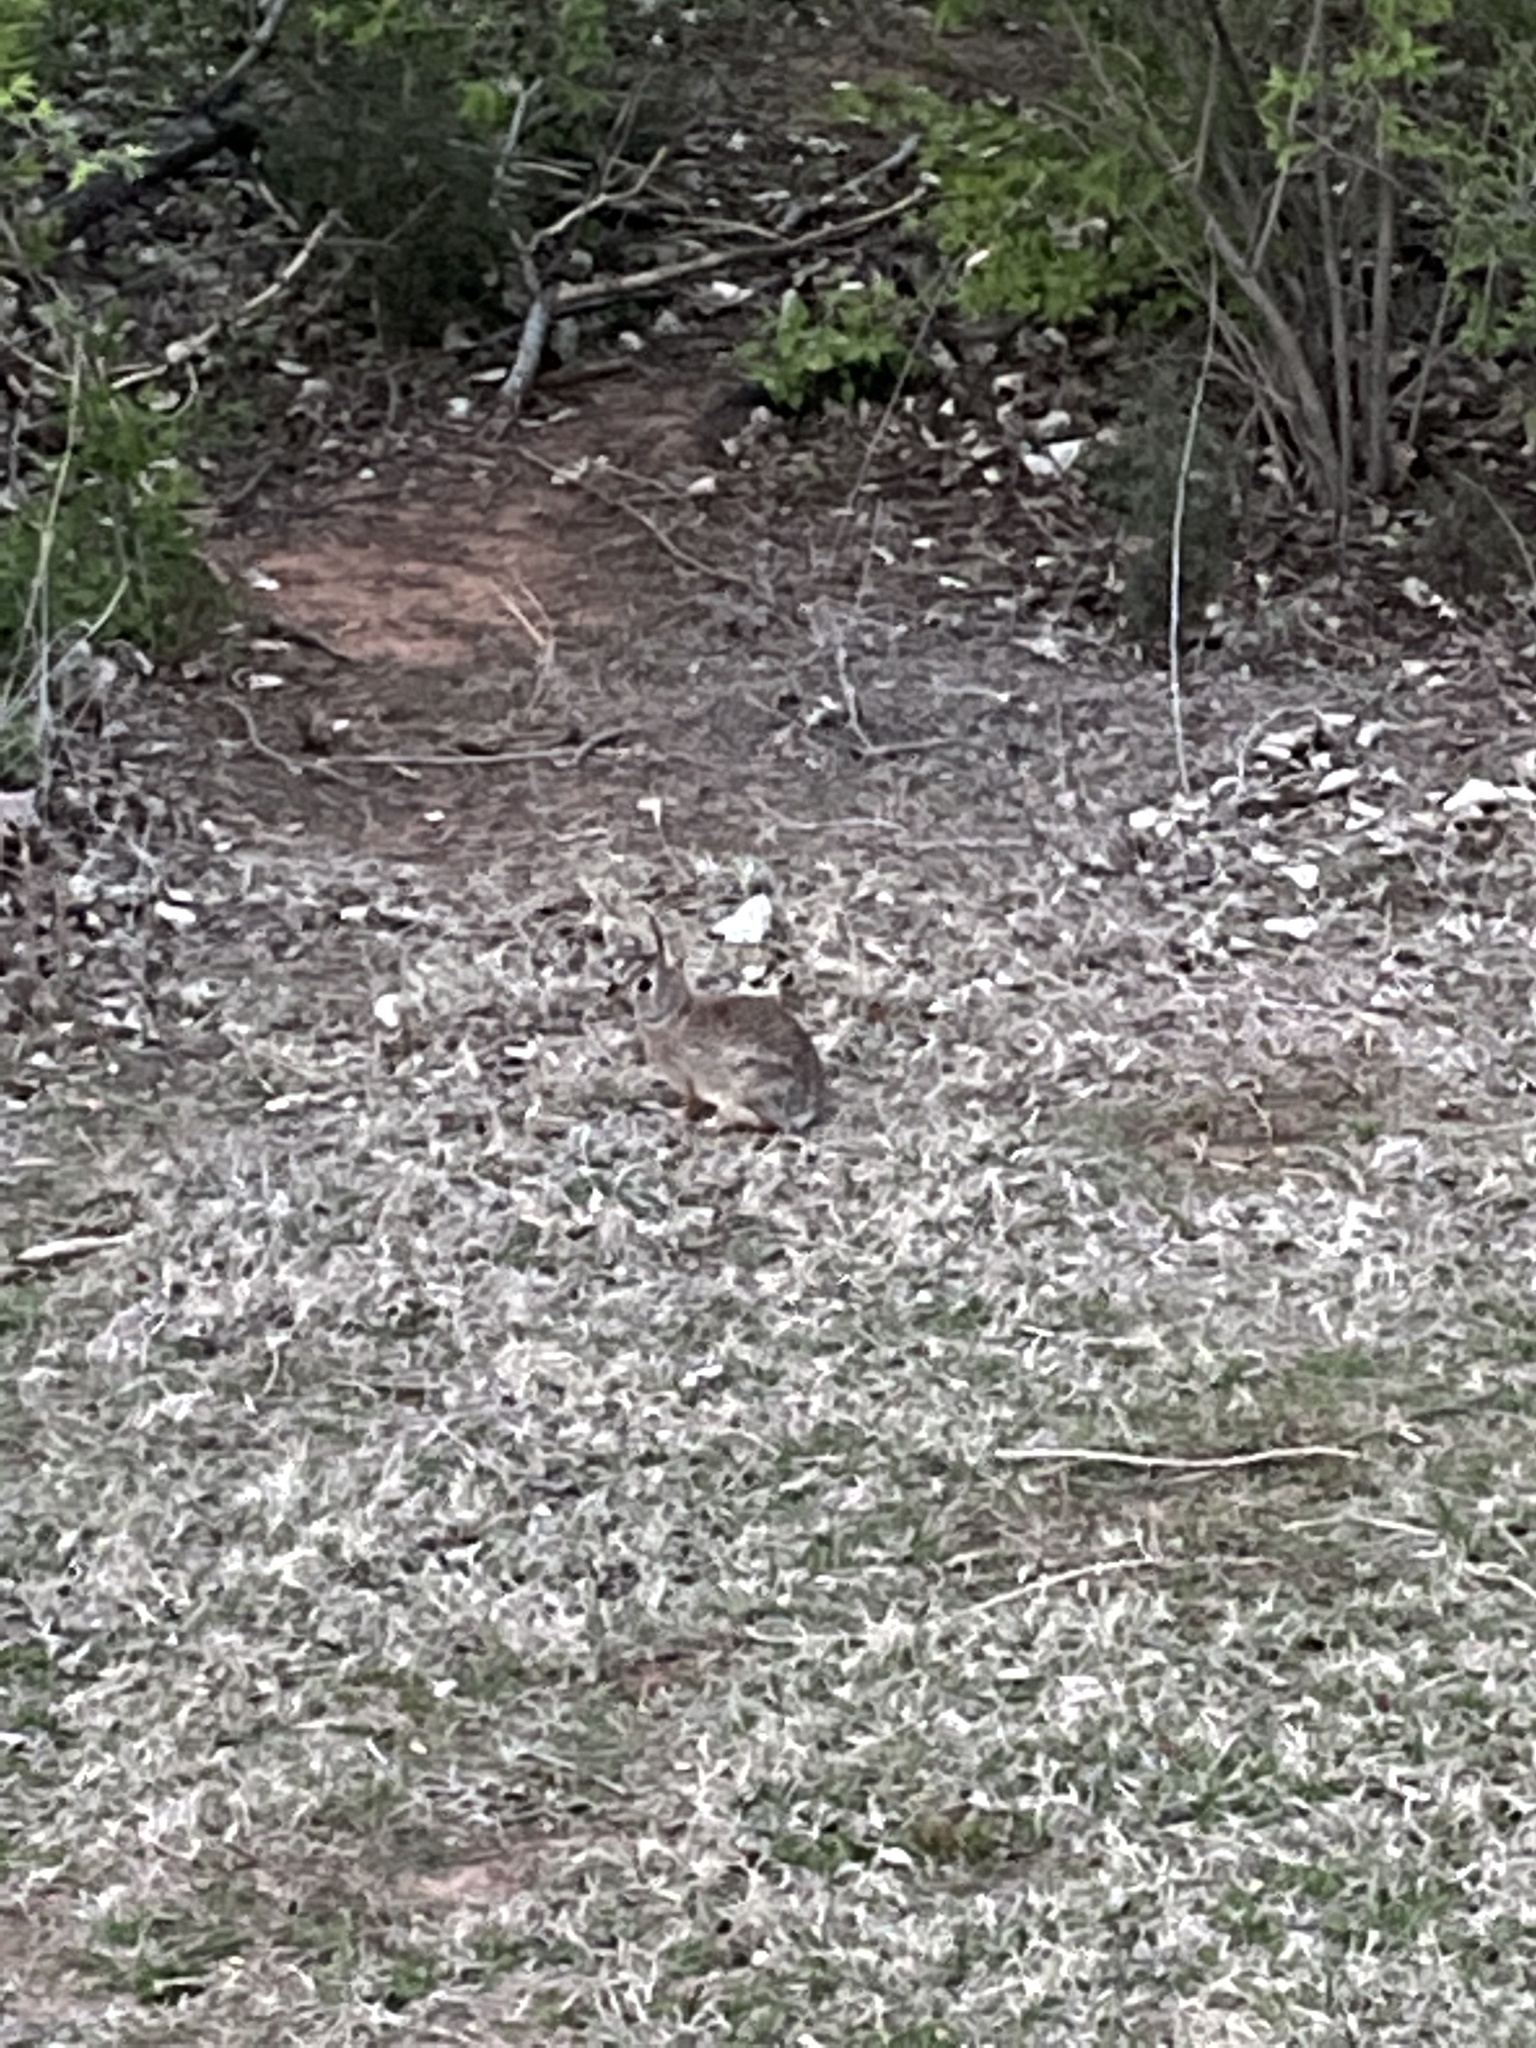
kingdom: Animalia
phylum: Chordata
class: Mammalia
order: Lagomorpha
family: Leporidae
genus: Sylvilagus
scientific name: Sylvilagus floridanus
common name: Eastern cottontail
